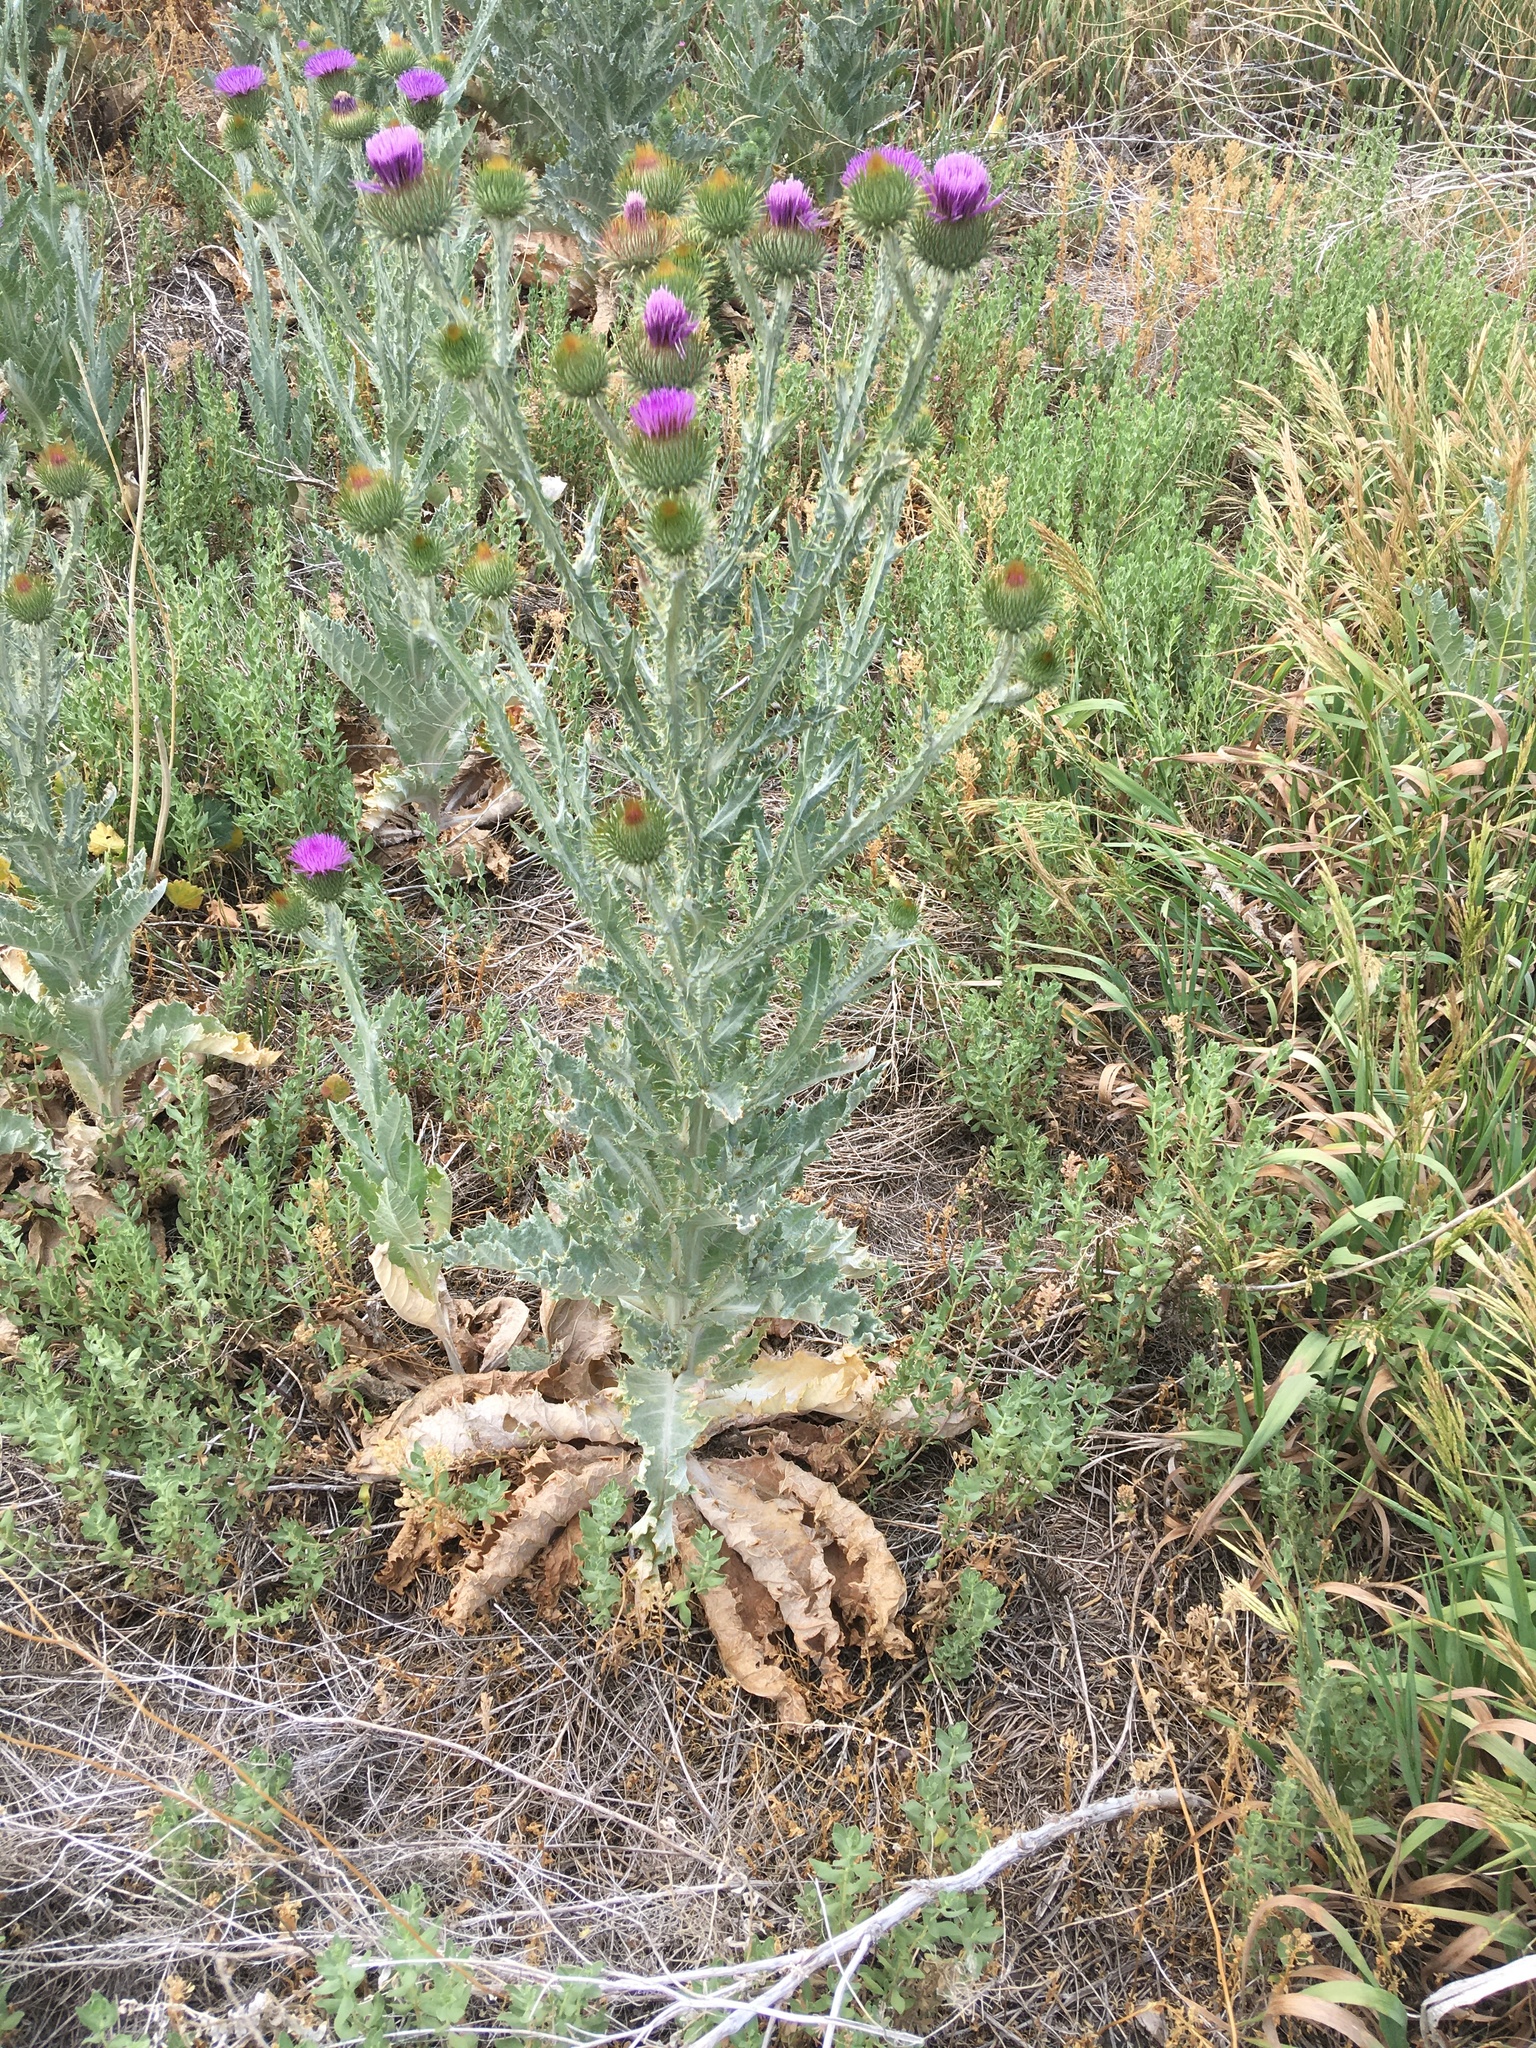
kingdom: Plantae
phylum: Tracheophyta
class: Magnoliopsida
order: Asterales
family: Asteraceae
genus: Onopordum
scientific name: Onopordum acanthium
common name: Scotch thistle
